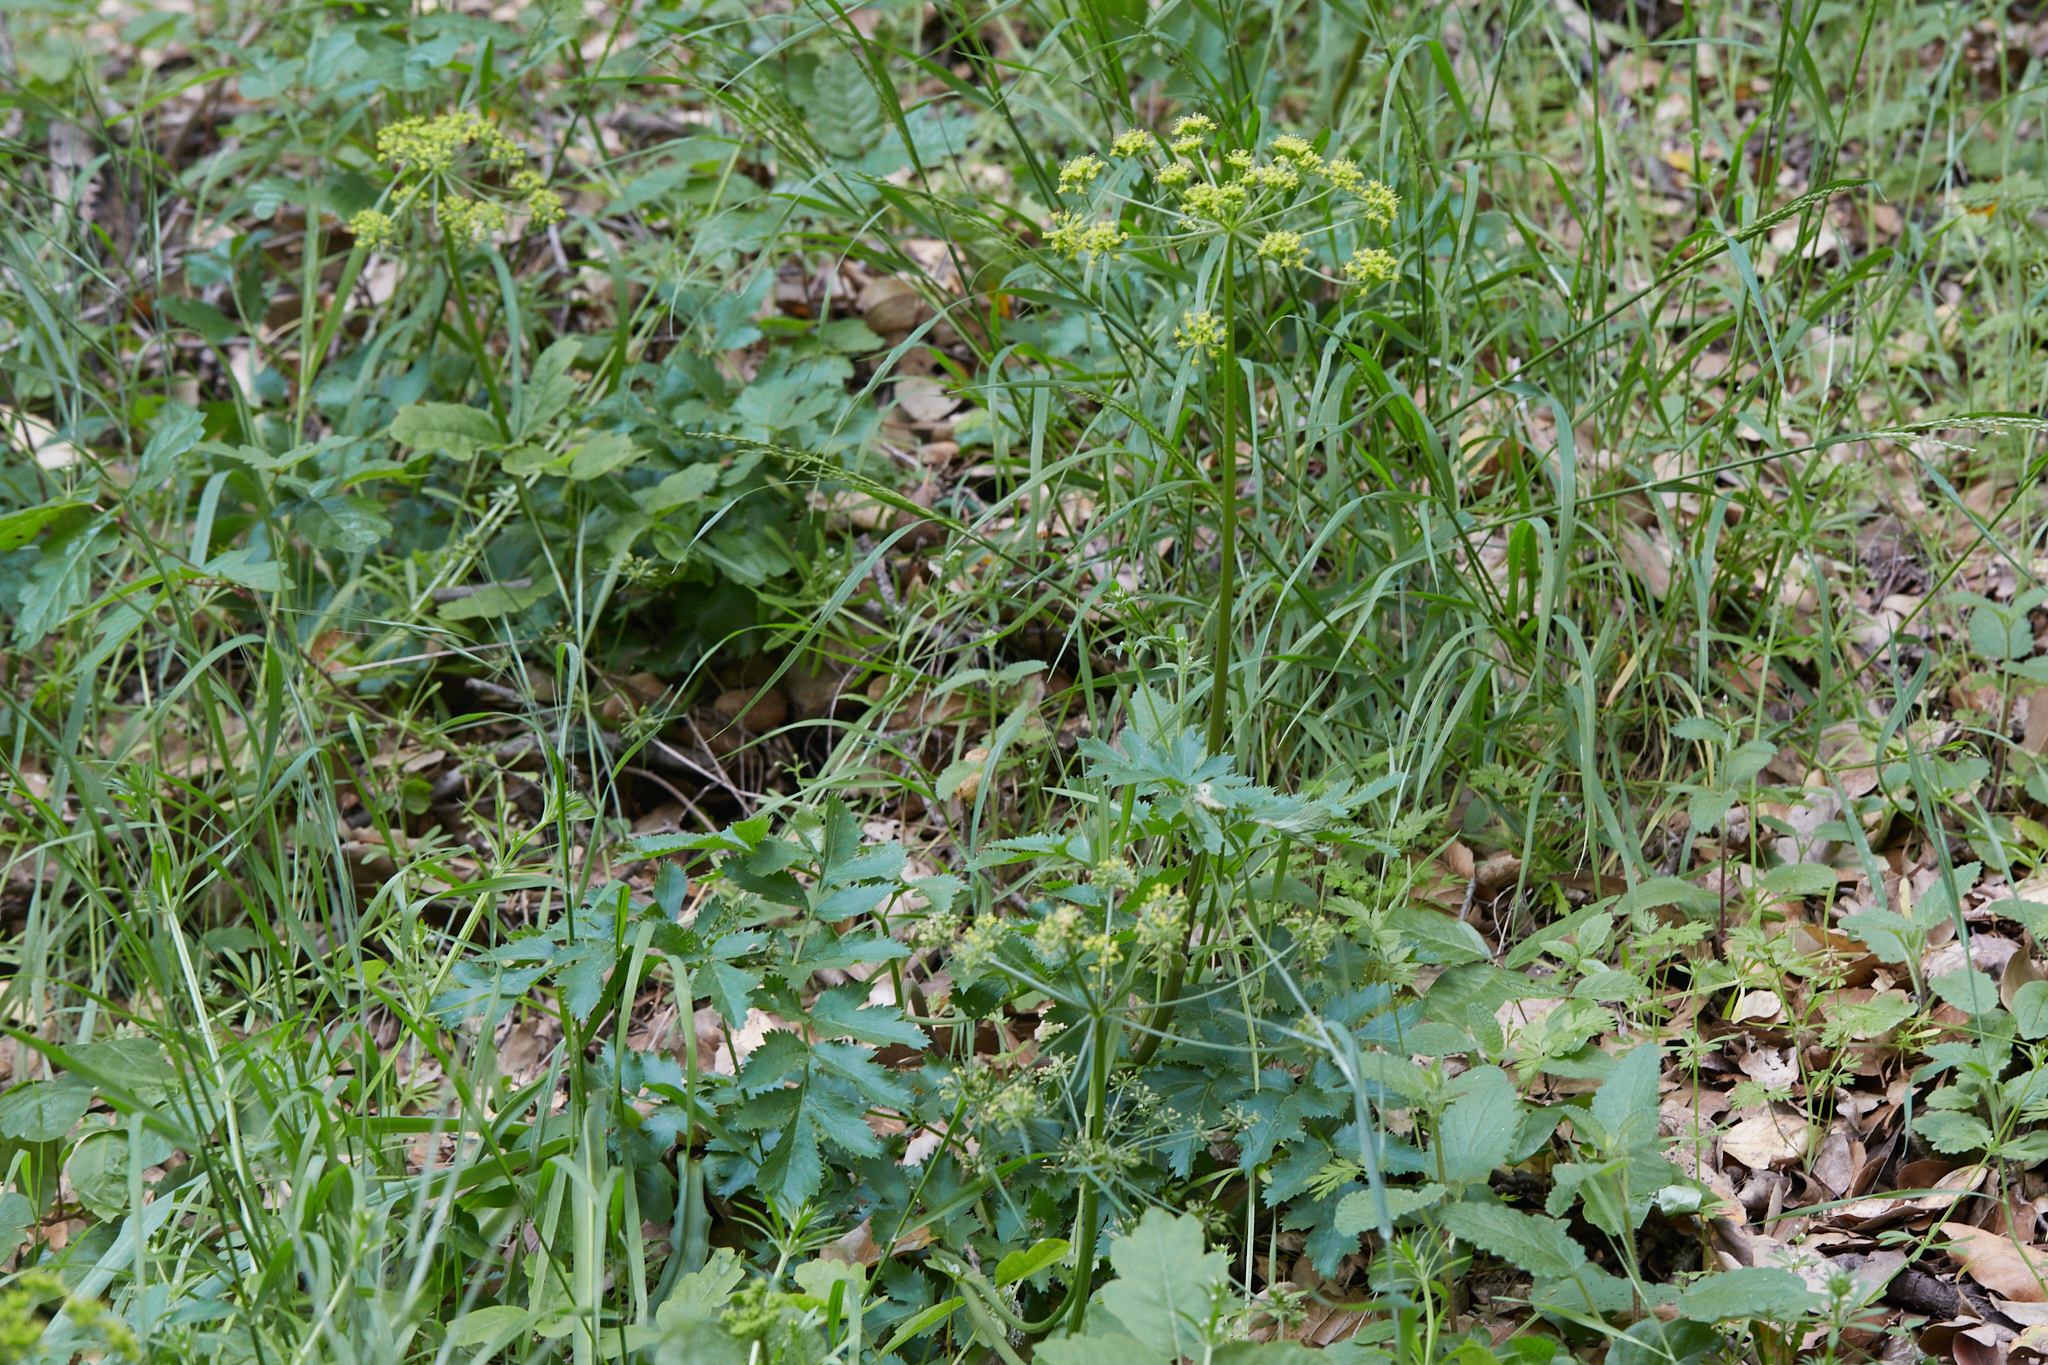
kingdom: Plantae
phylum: Tracheophyta
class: Magnoliopsida
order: Apiales
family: Apiaceae
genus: Tauschia
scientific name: Tauschia hartwegii
